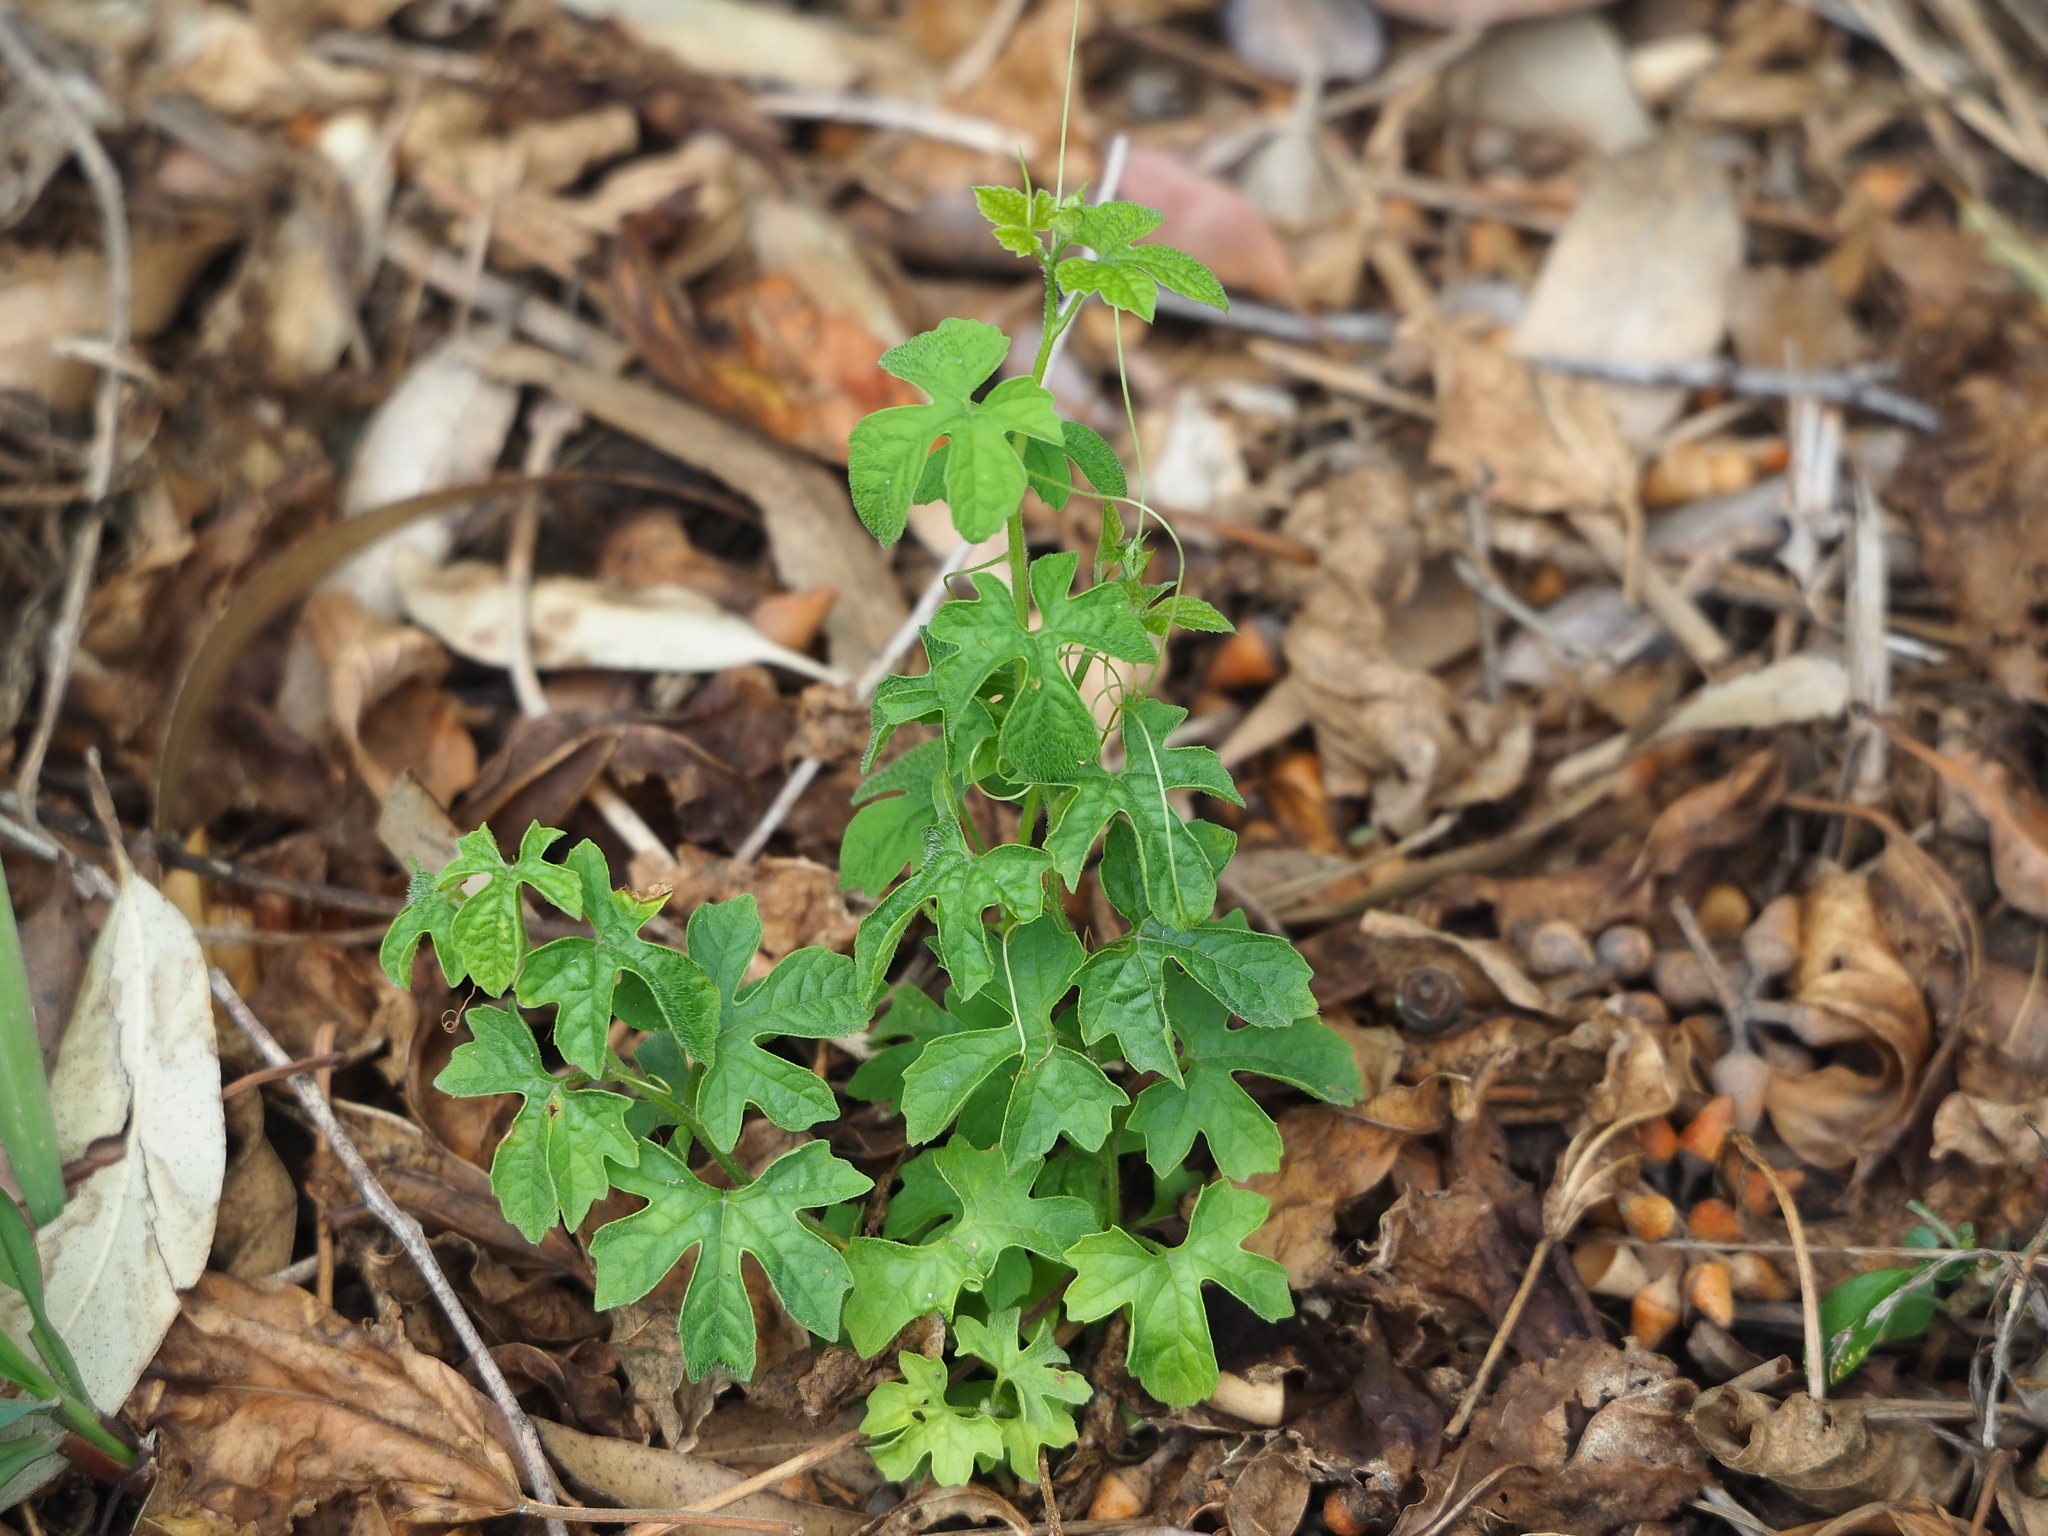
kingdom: Plantae
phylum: Tracheophyta
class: Magnoliopsida
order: Cucurbitales
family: Cucurbitaceae
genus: Momordica
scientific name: Momordica charantia
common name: Balsampear
